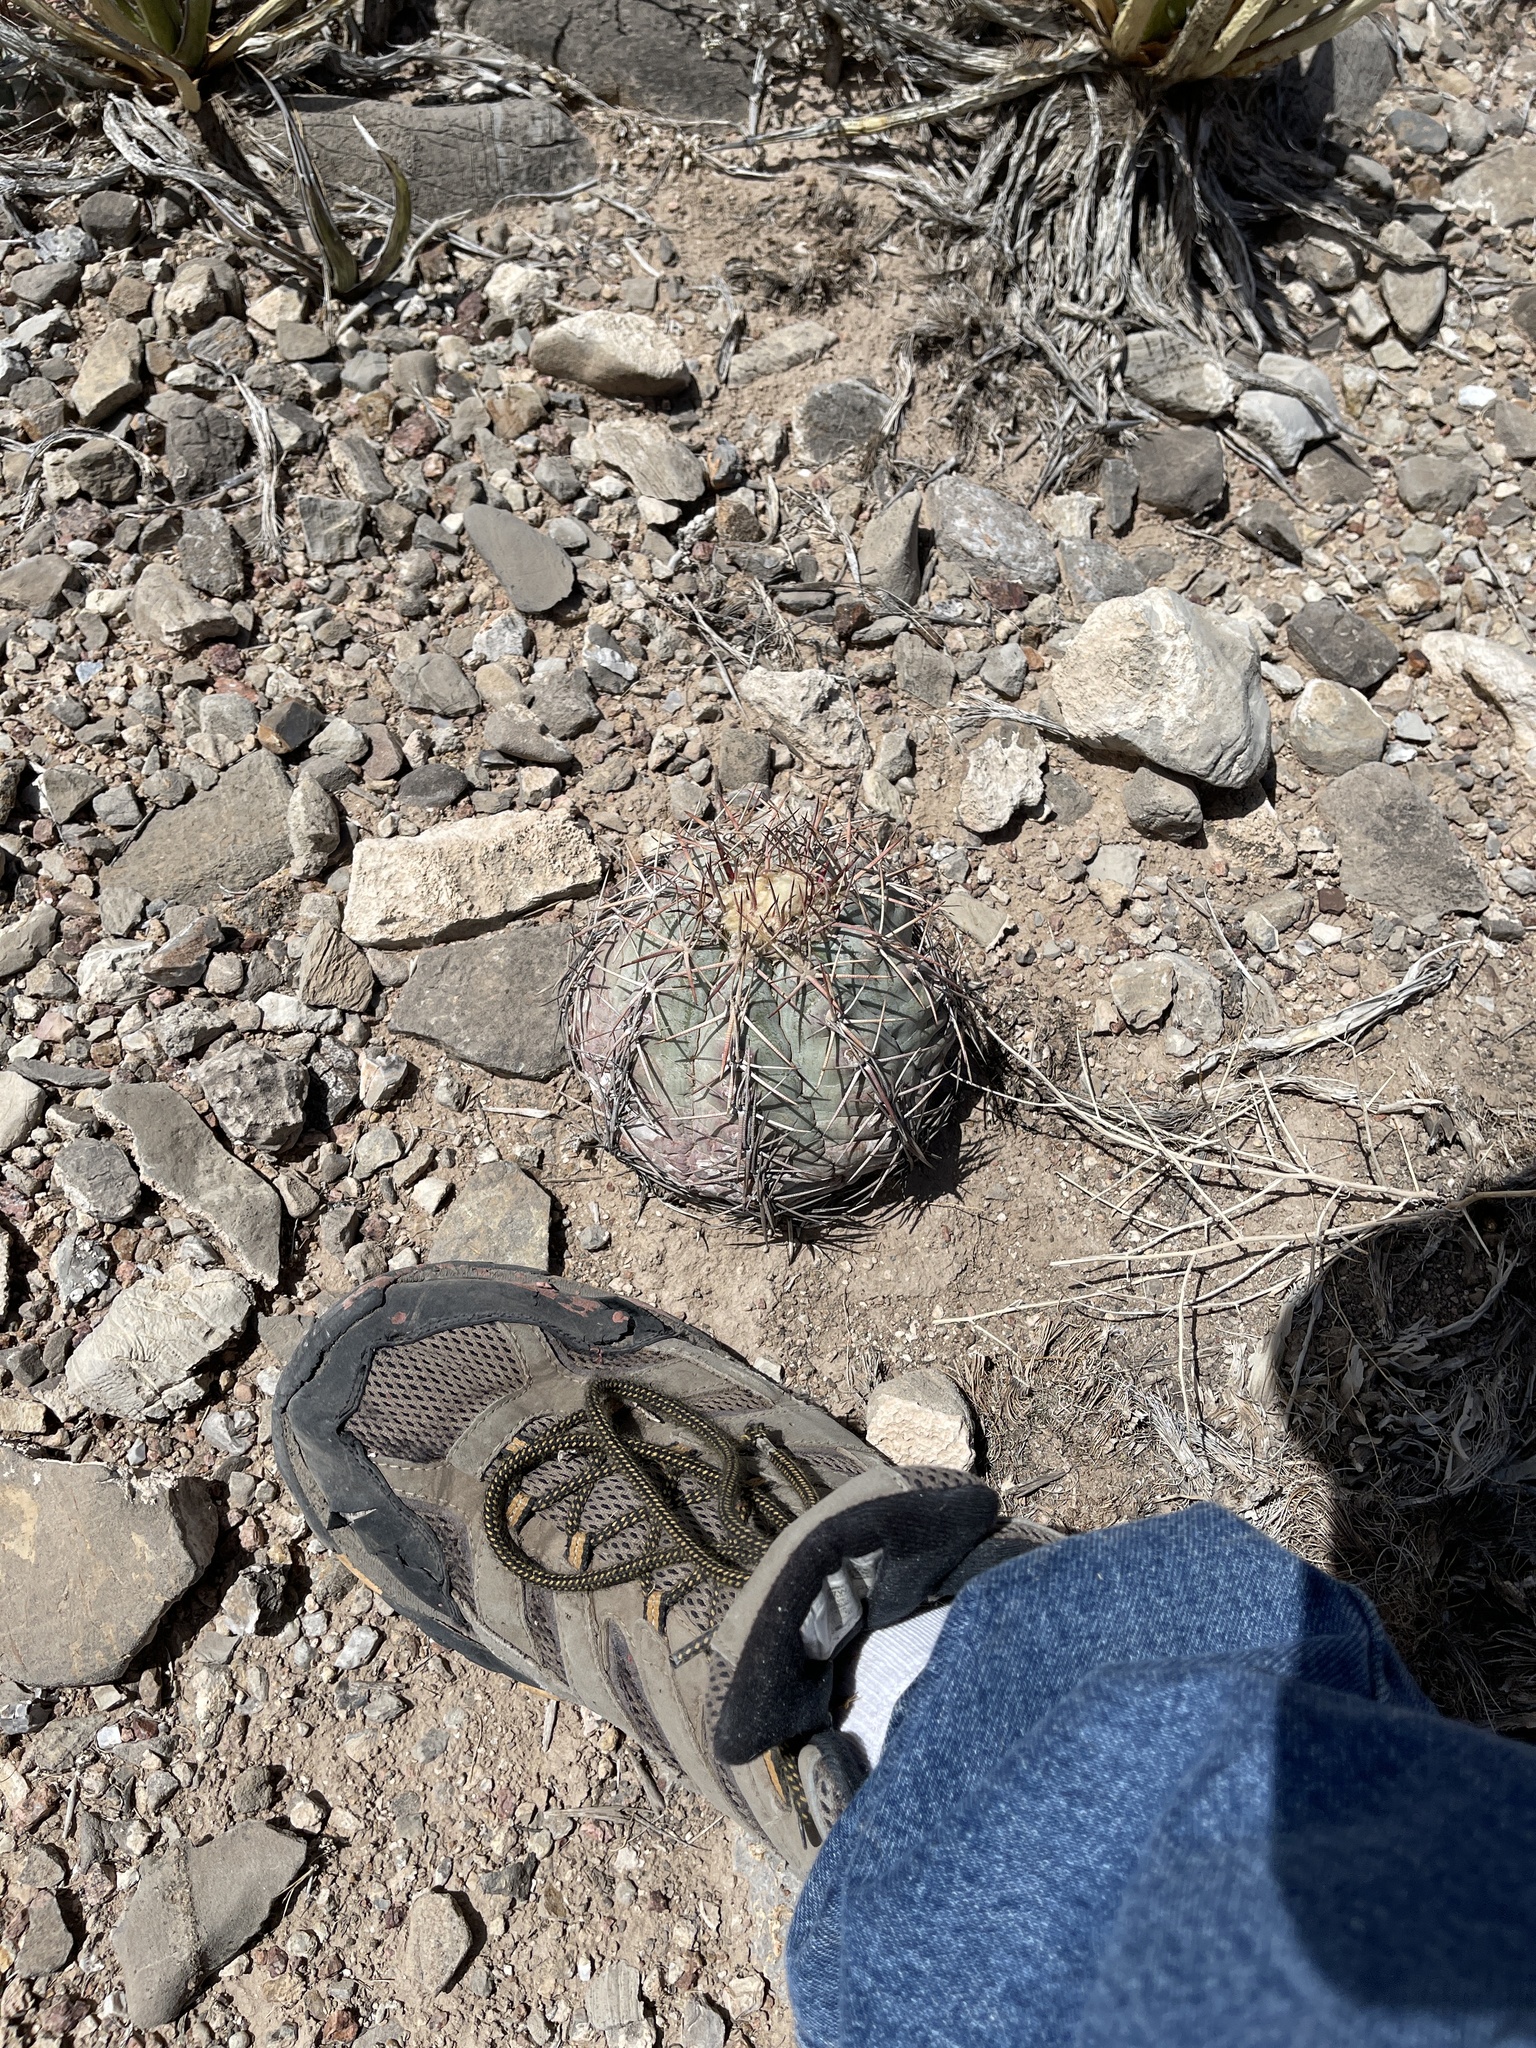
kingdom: Plantae
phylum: Tracheophyta
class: Magnoliopsida
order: Caryophyllales
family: Cactaceae
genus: Echinocactus
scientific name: Echinocactus horizonthalonius
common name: Devilshead
